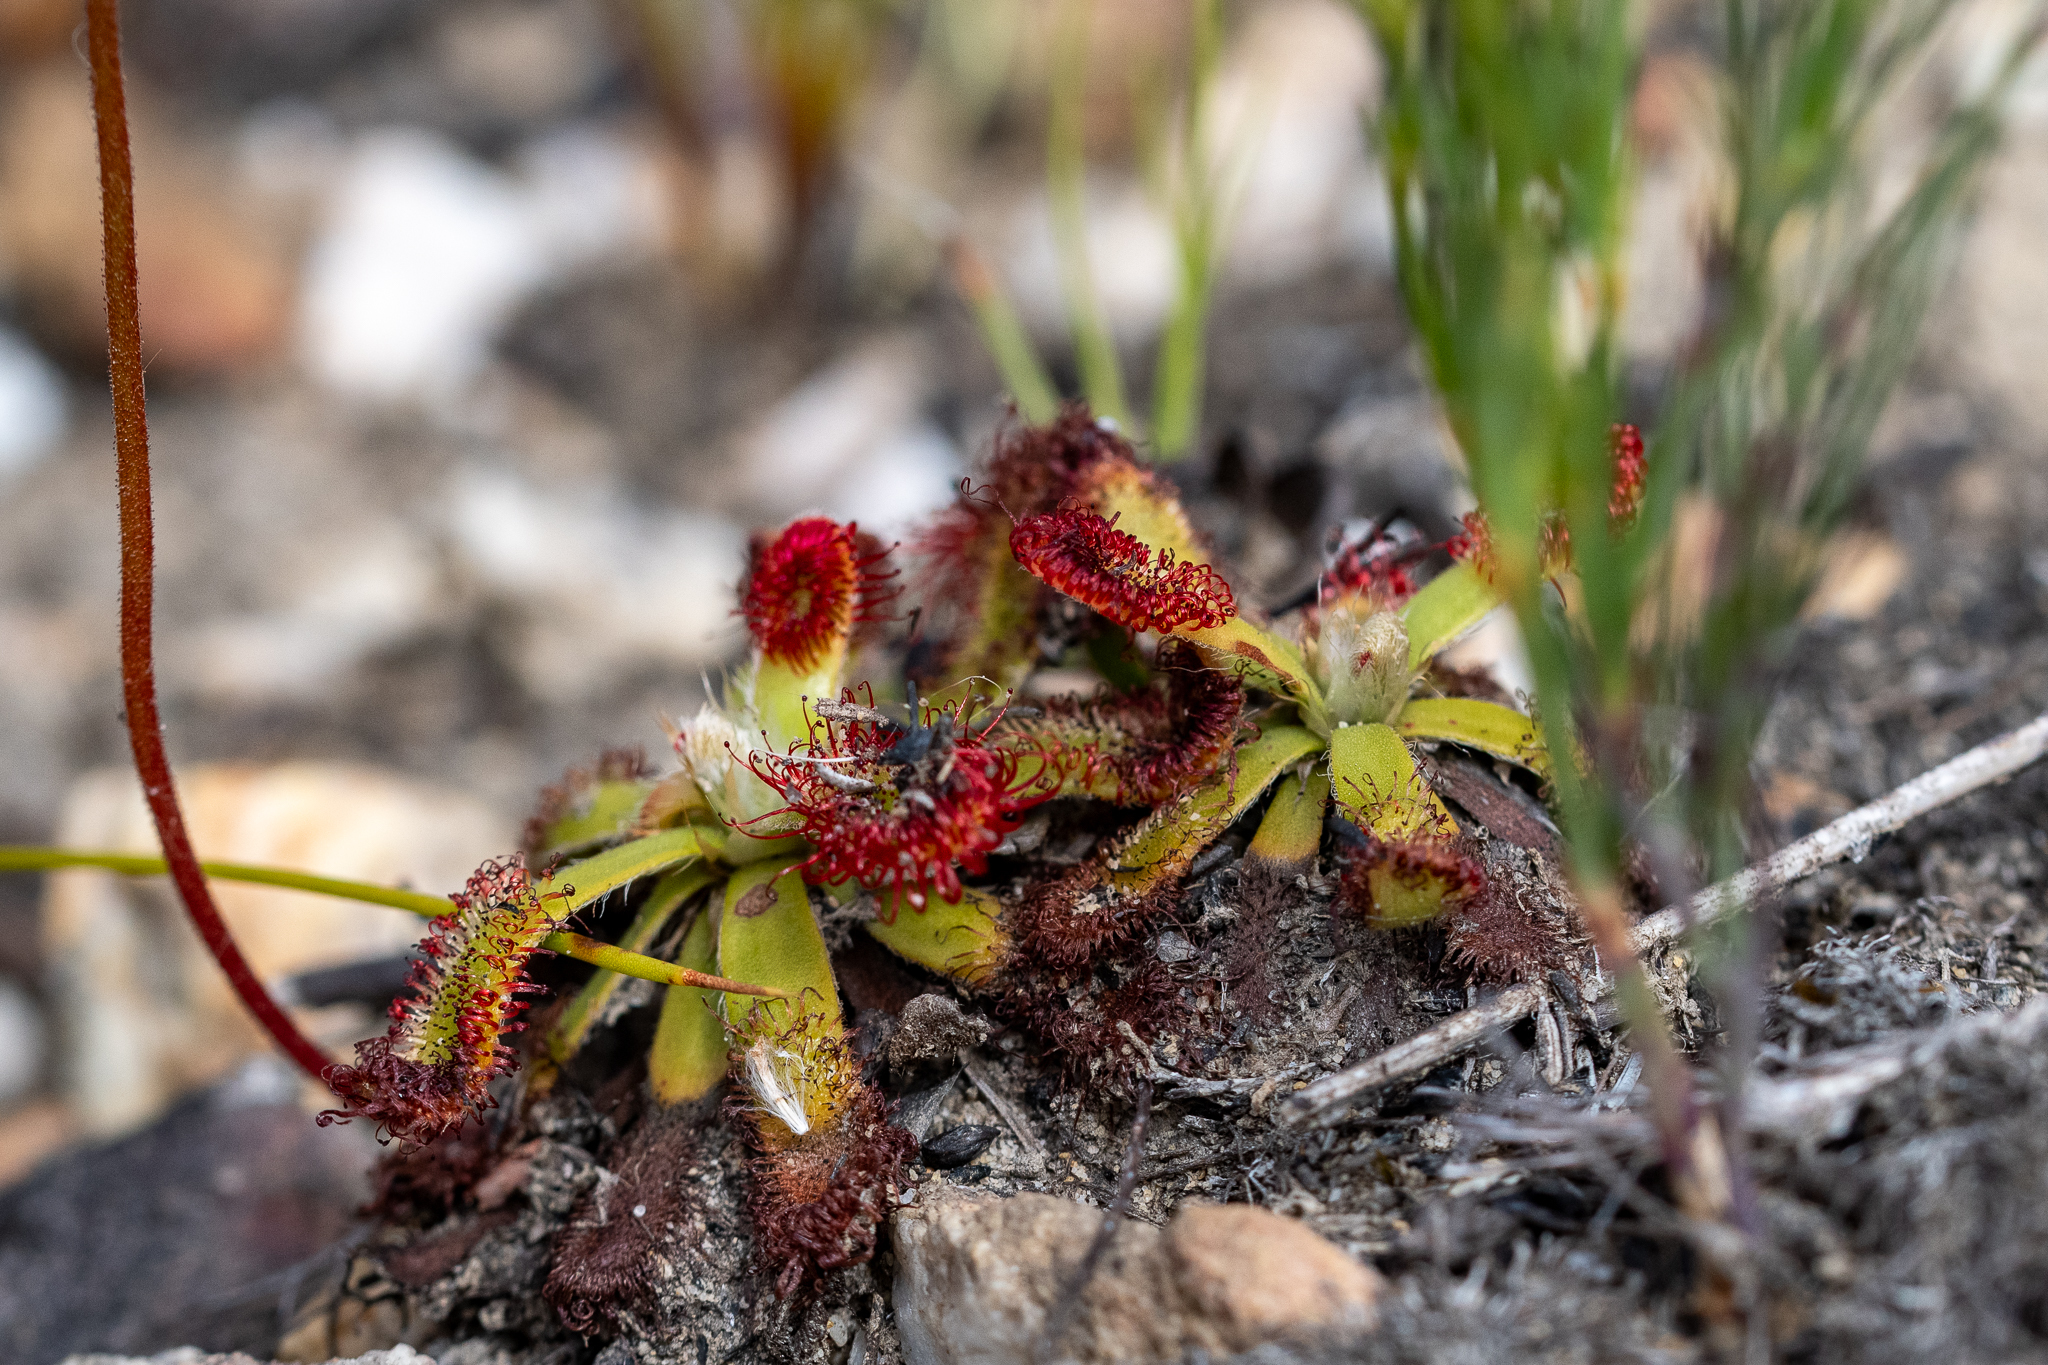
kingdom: Plantae
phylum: Tracheophyta
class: Magnoliopsida
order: Caryophyllales
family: Droseraceae
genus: Drosera
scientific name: Drosera aliciae
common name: Alice sundew
